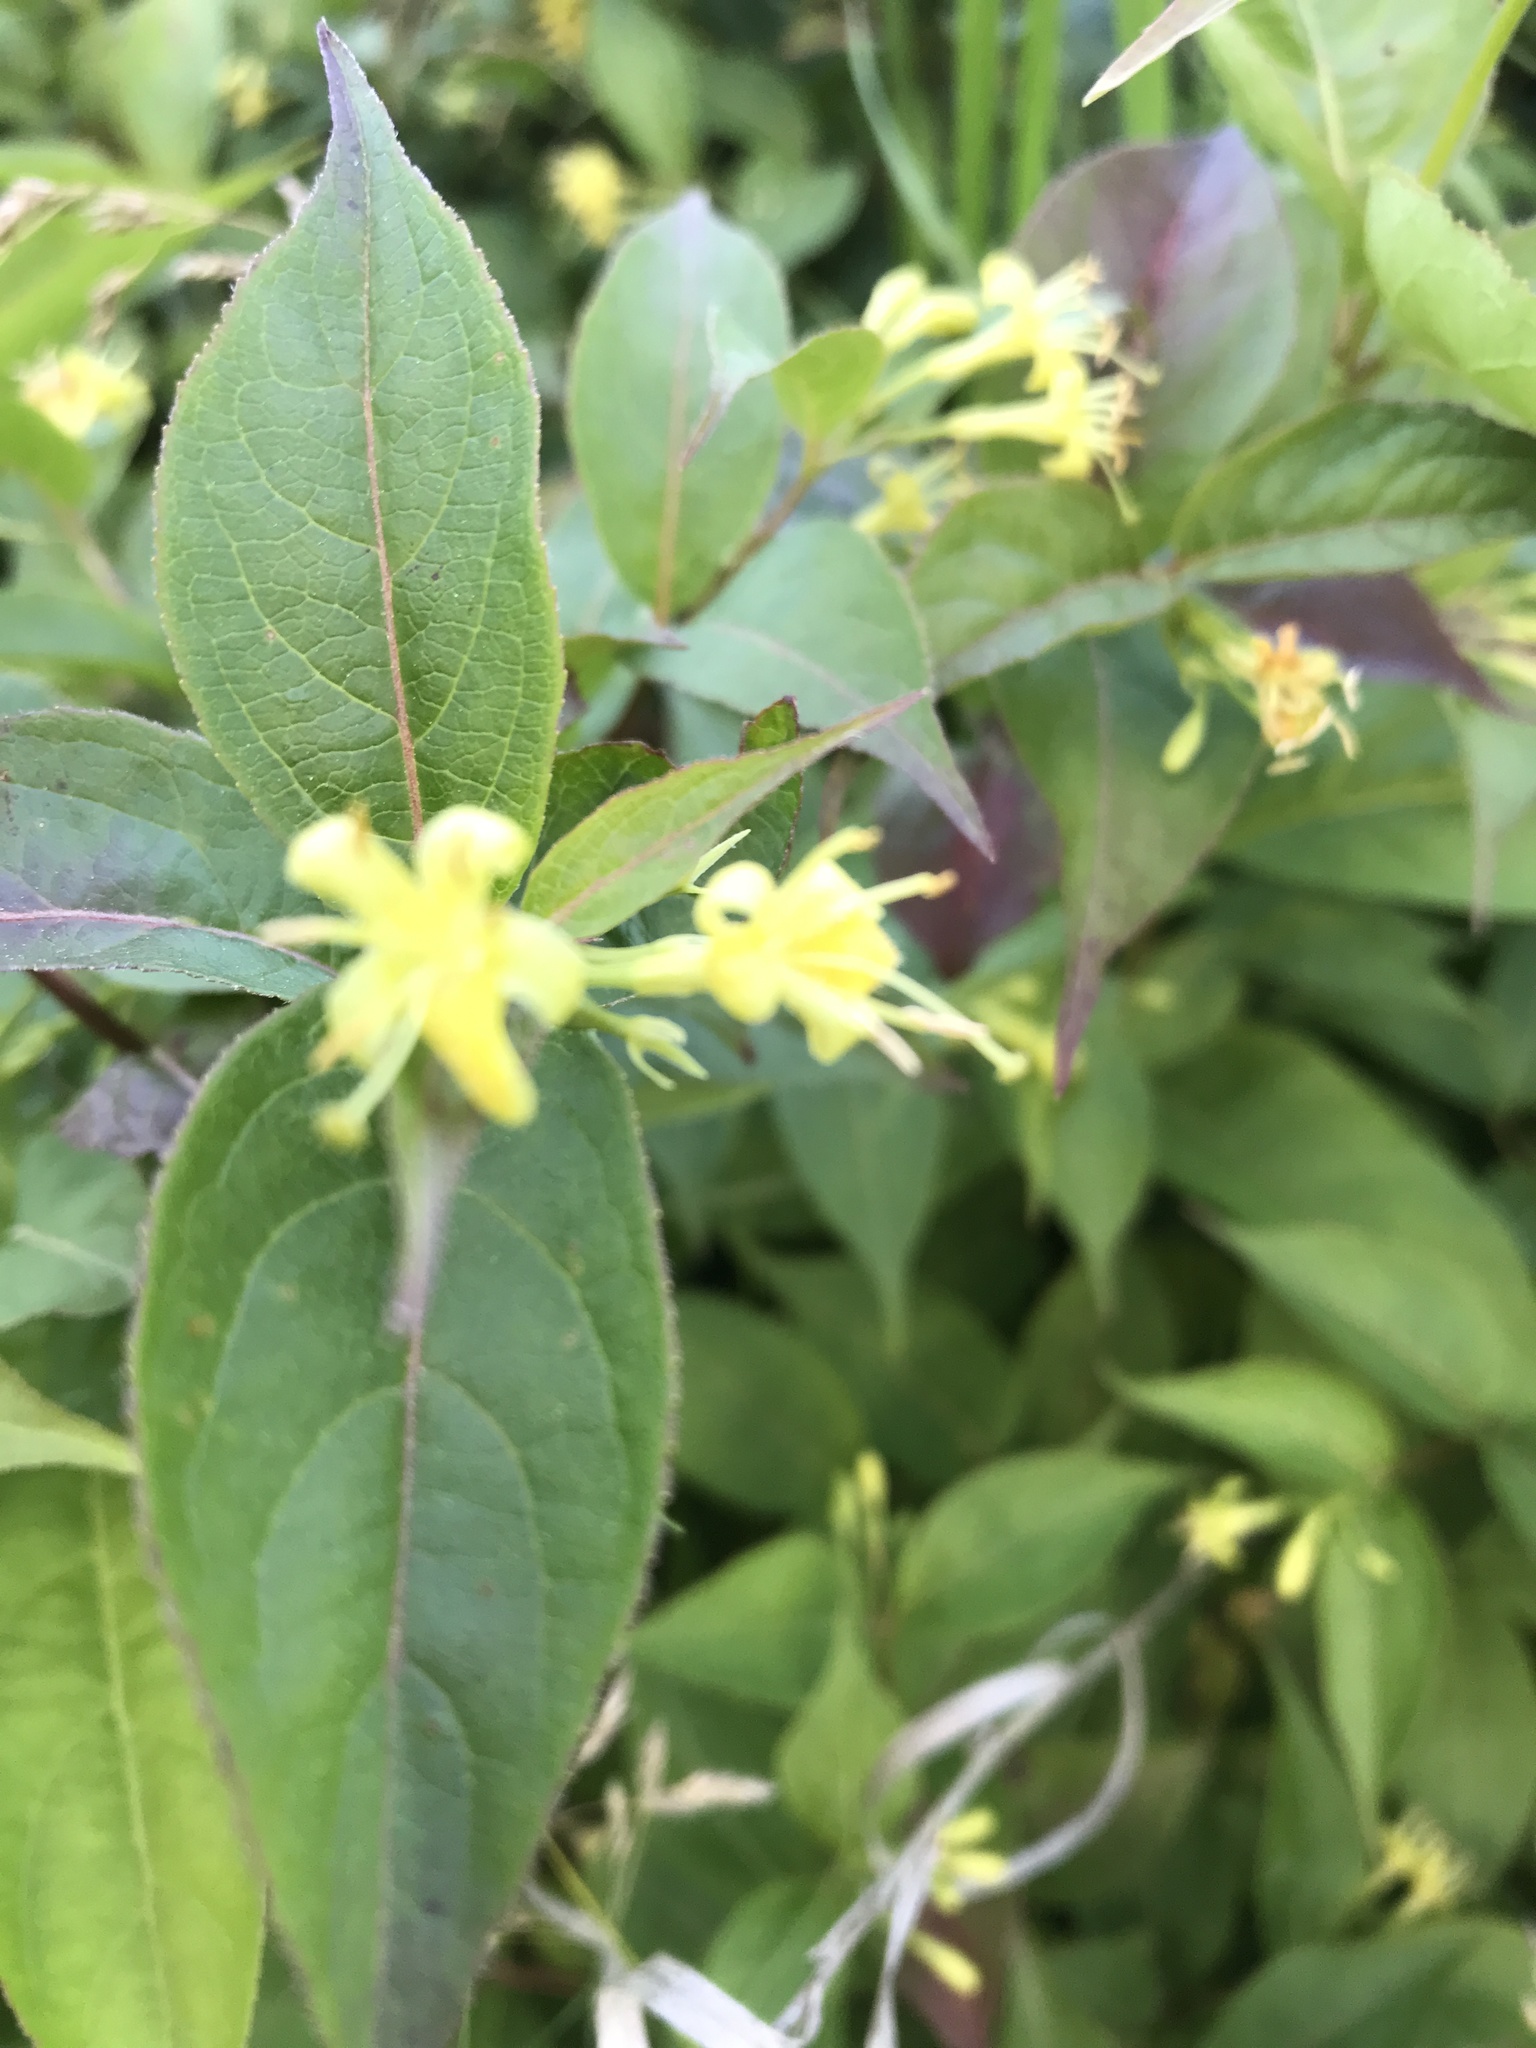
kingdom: Plantae
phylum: Tracheophyta
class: Magnoliopsida
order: Dipsacales
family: Caprifoliaceae
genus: Diervilla
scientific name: Diervilla lonicera
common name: Bush-honeysuckle
